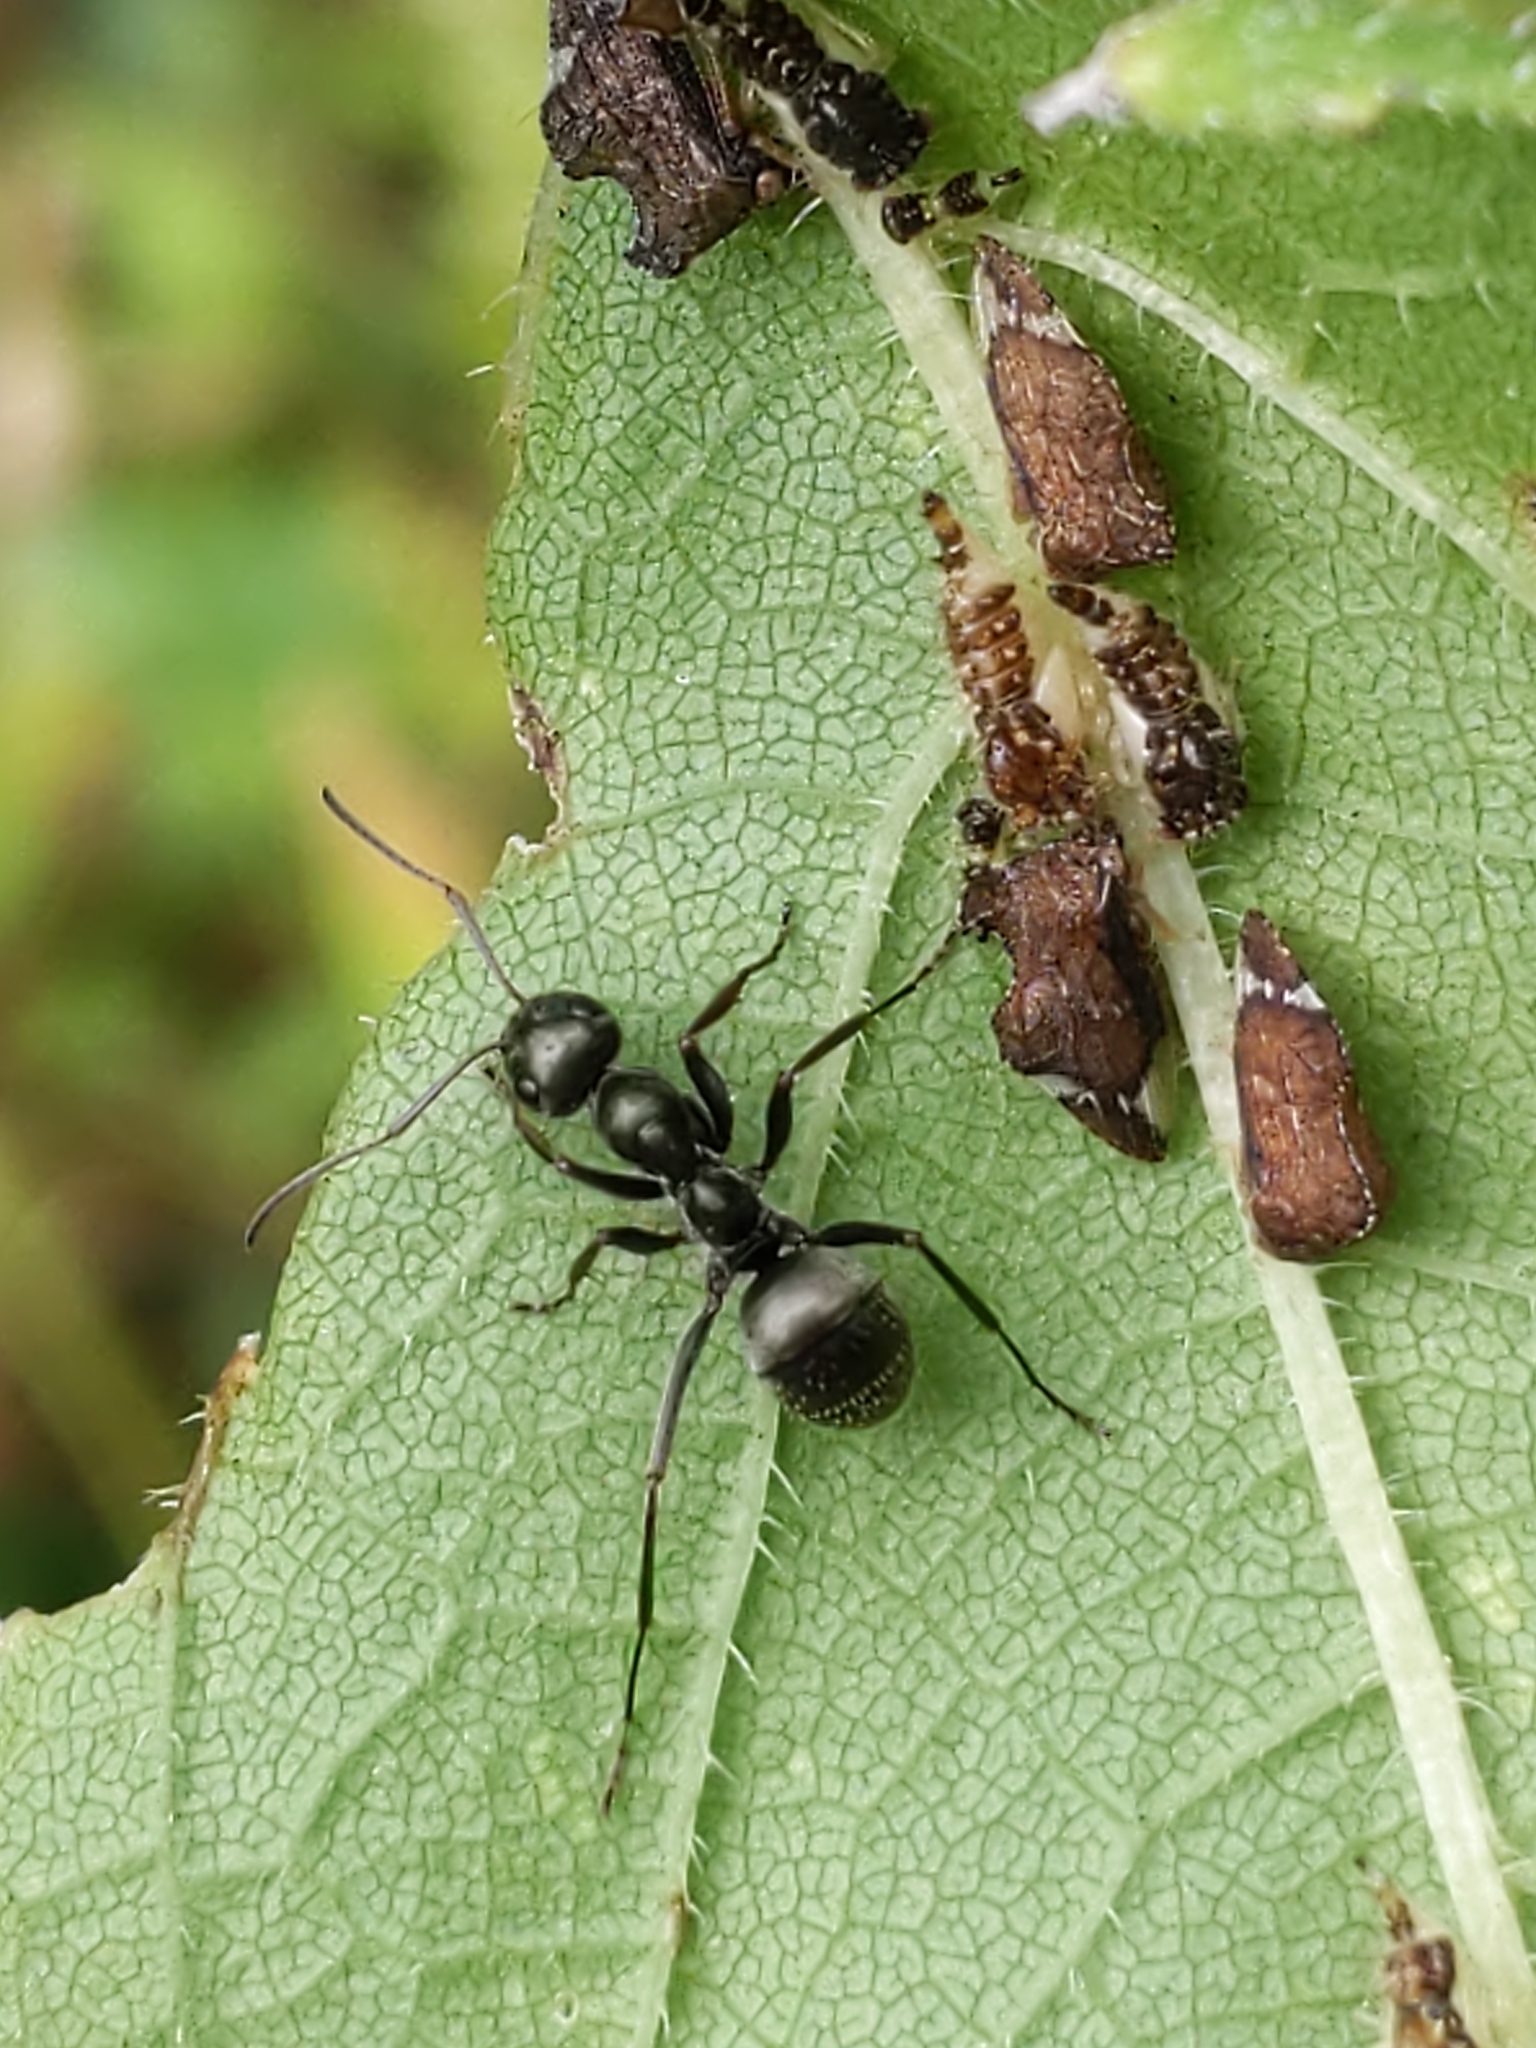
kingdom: Animalia
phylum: Arthropoda
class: Insecta
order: Hymenoptera
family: Formicidae
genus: Formica
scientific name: Formica
